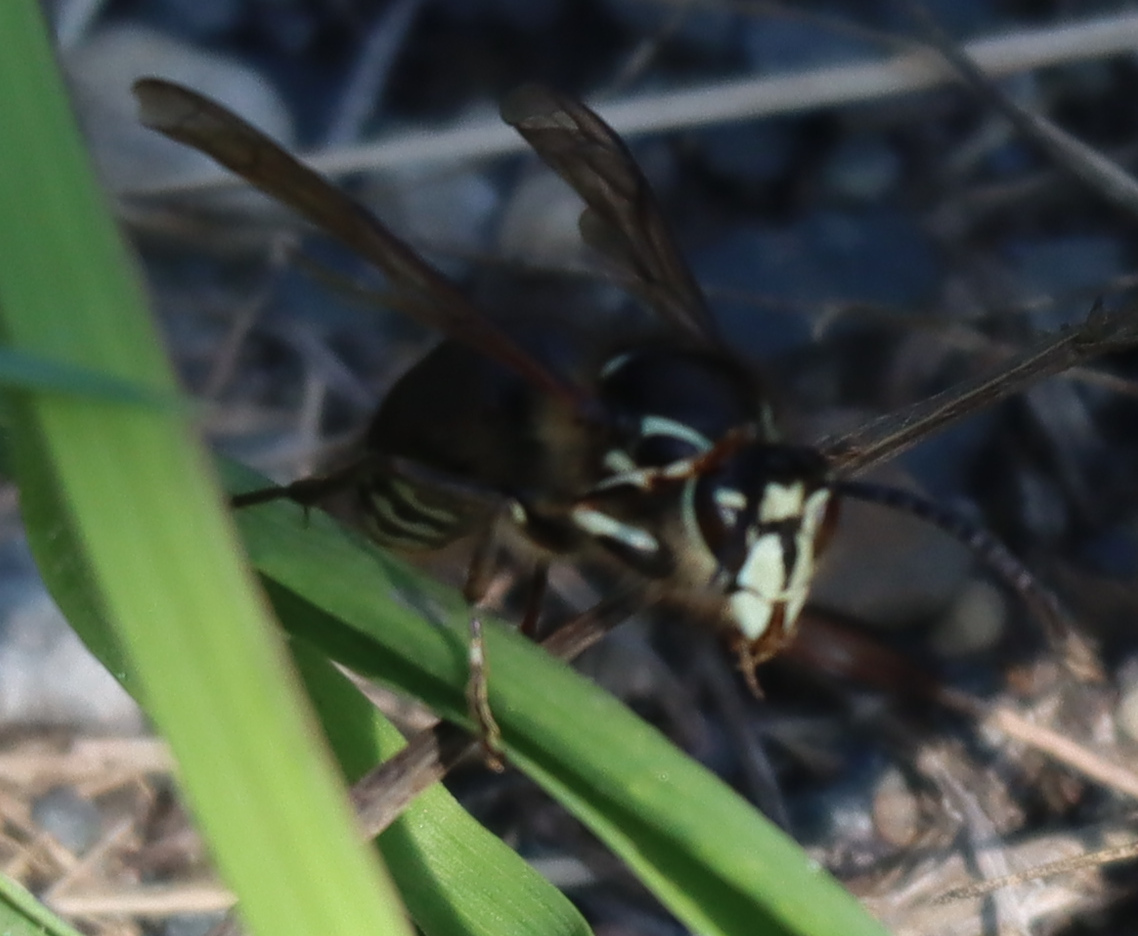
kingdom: Animalia
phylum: Arthropoda
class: Insecta
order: Hymenoptera
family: Vespidae
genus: Dolichovespula
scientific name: Dolichovespula maculata
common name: Bald-faced hornet
